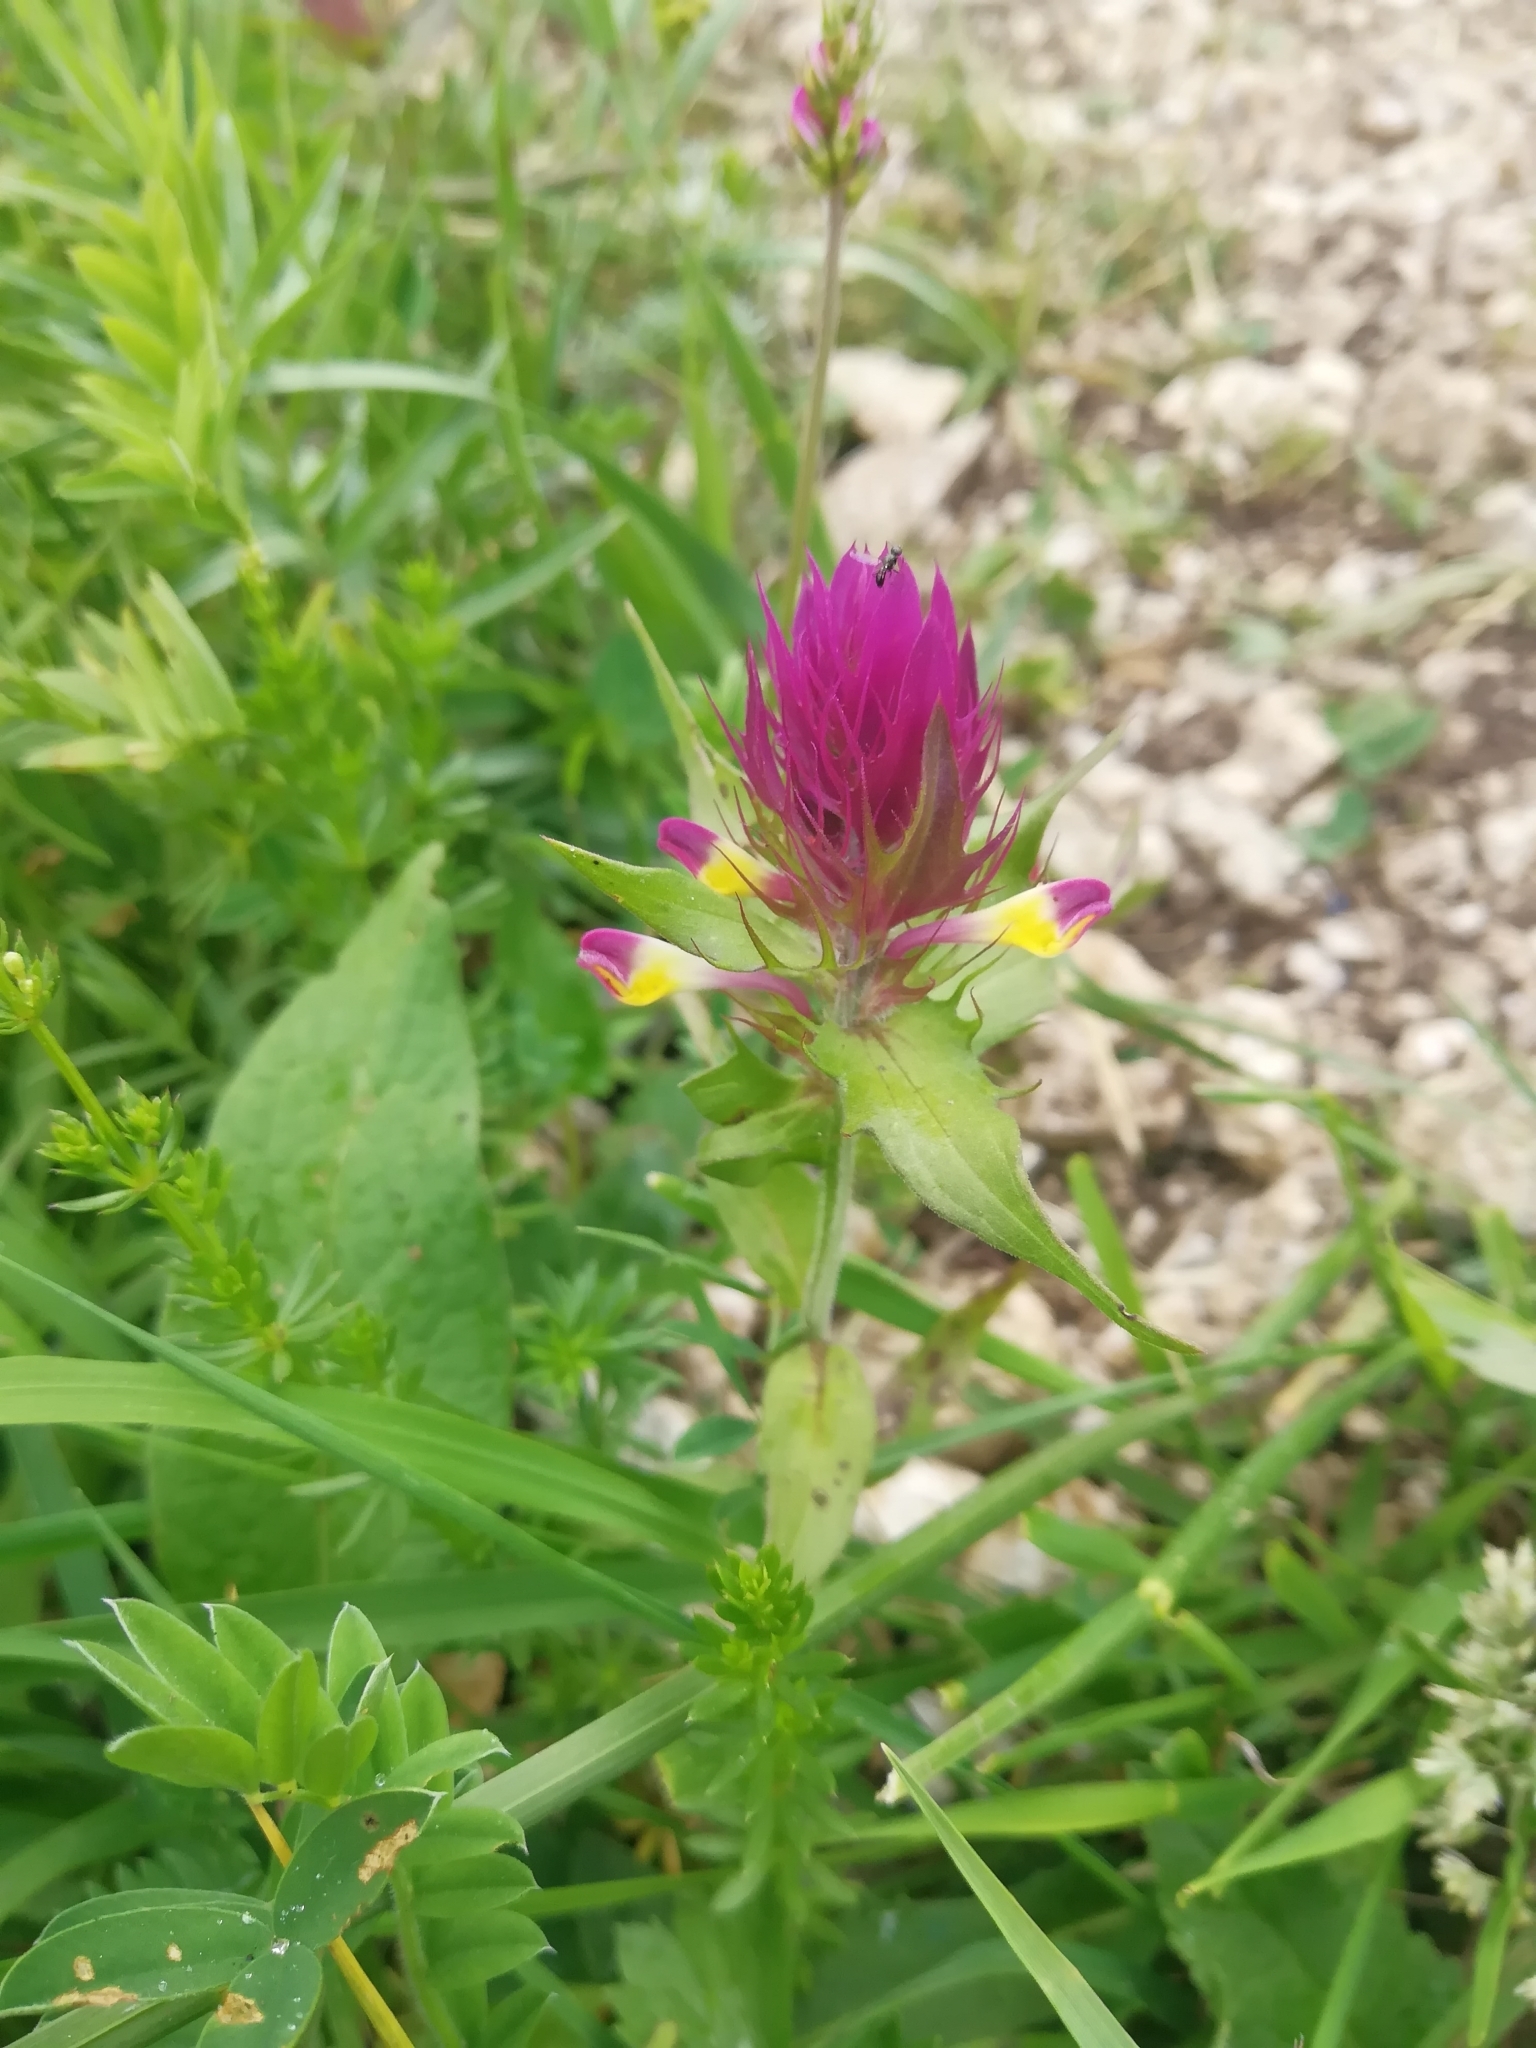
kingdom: Plantae
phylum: Tracheophyta
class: Magnoliopsida
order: Lamiales
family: Orobanchaceae
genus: Melampyrum
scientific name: Melampyrum arvense
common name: Field cow-wheat
